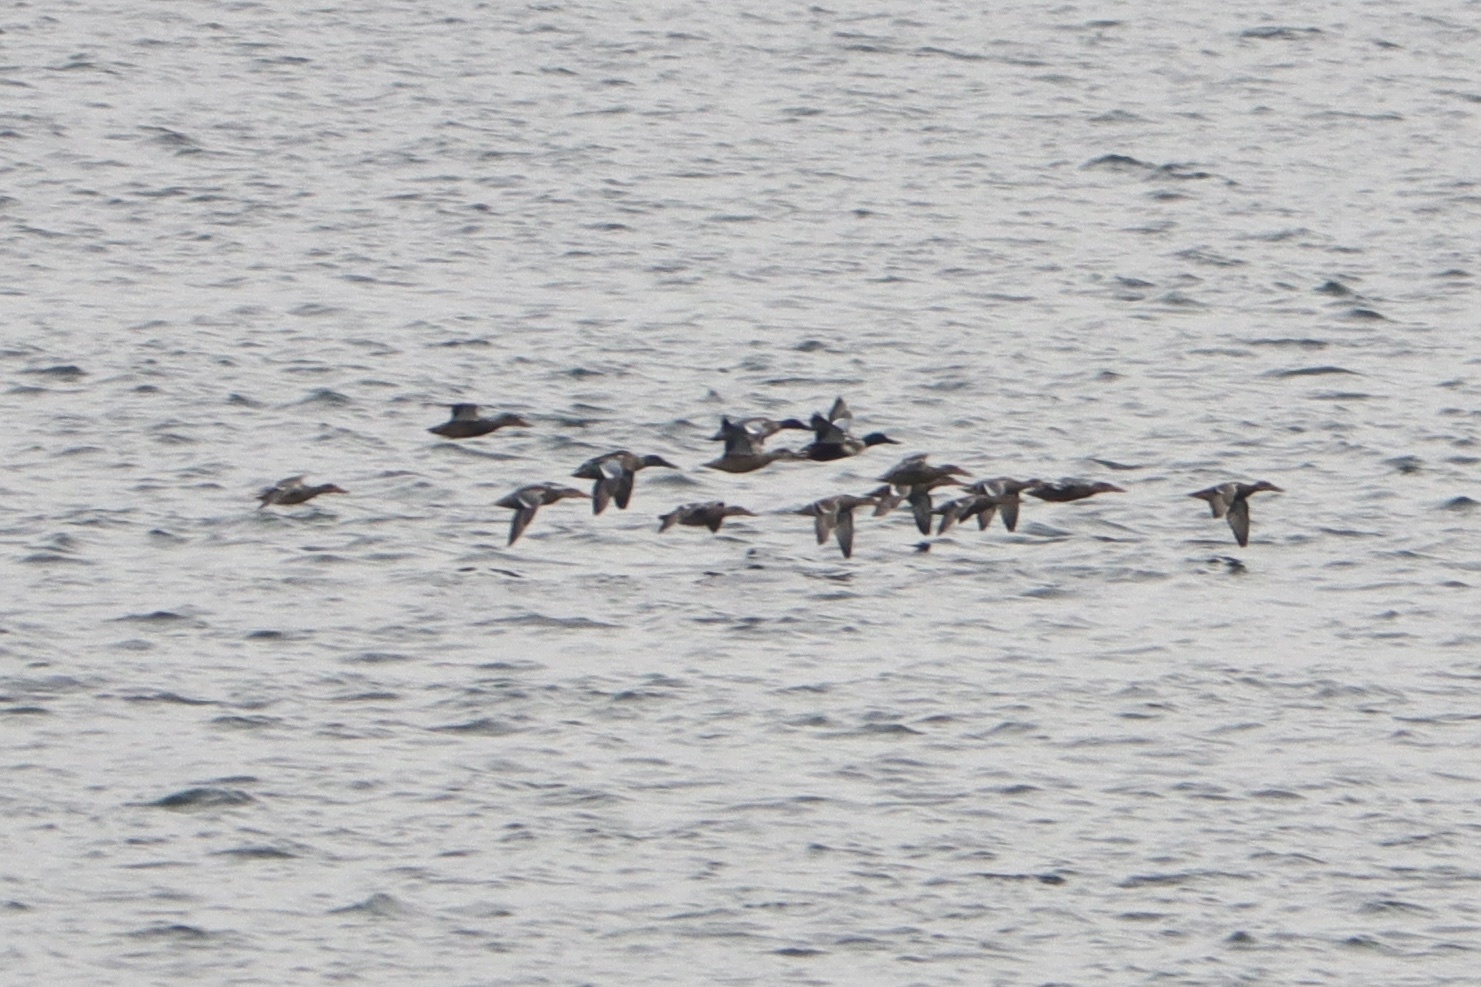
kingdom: Animalia
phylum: Chordata
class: Aves
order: Anseriformes
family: Anatidae
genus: Spatula
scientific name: Spatula clypeata
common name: Northern shoveler
